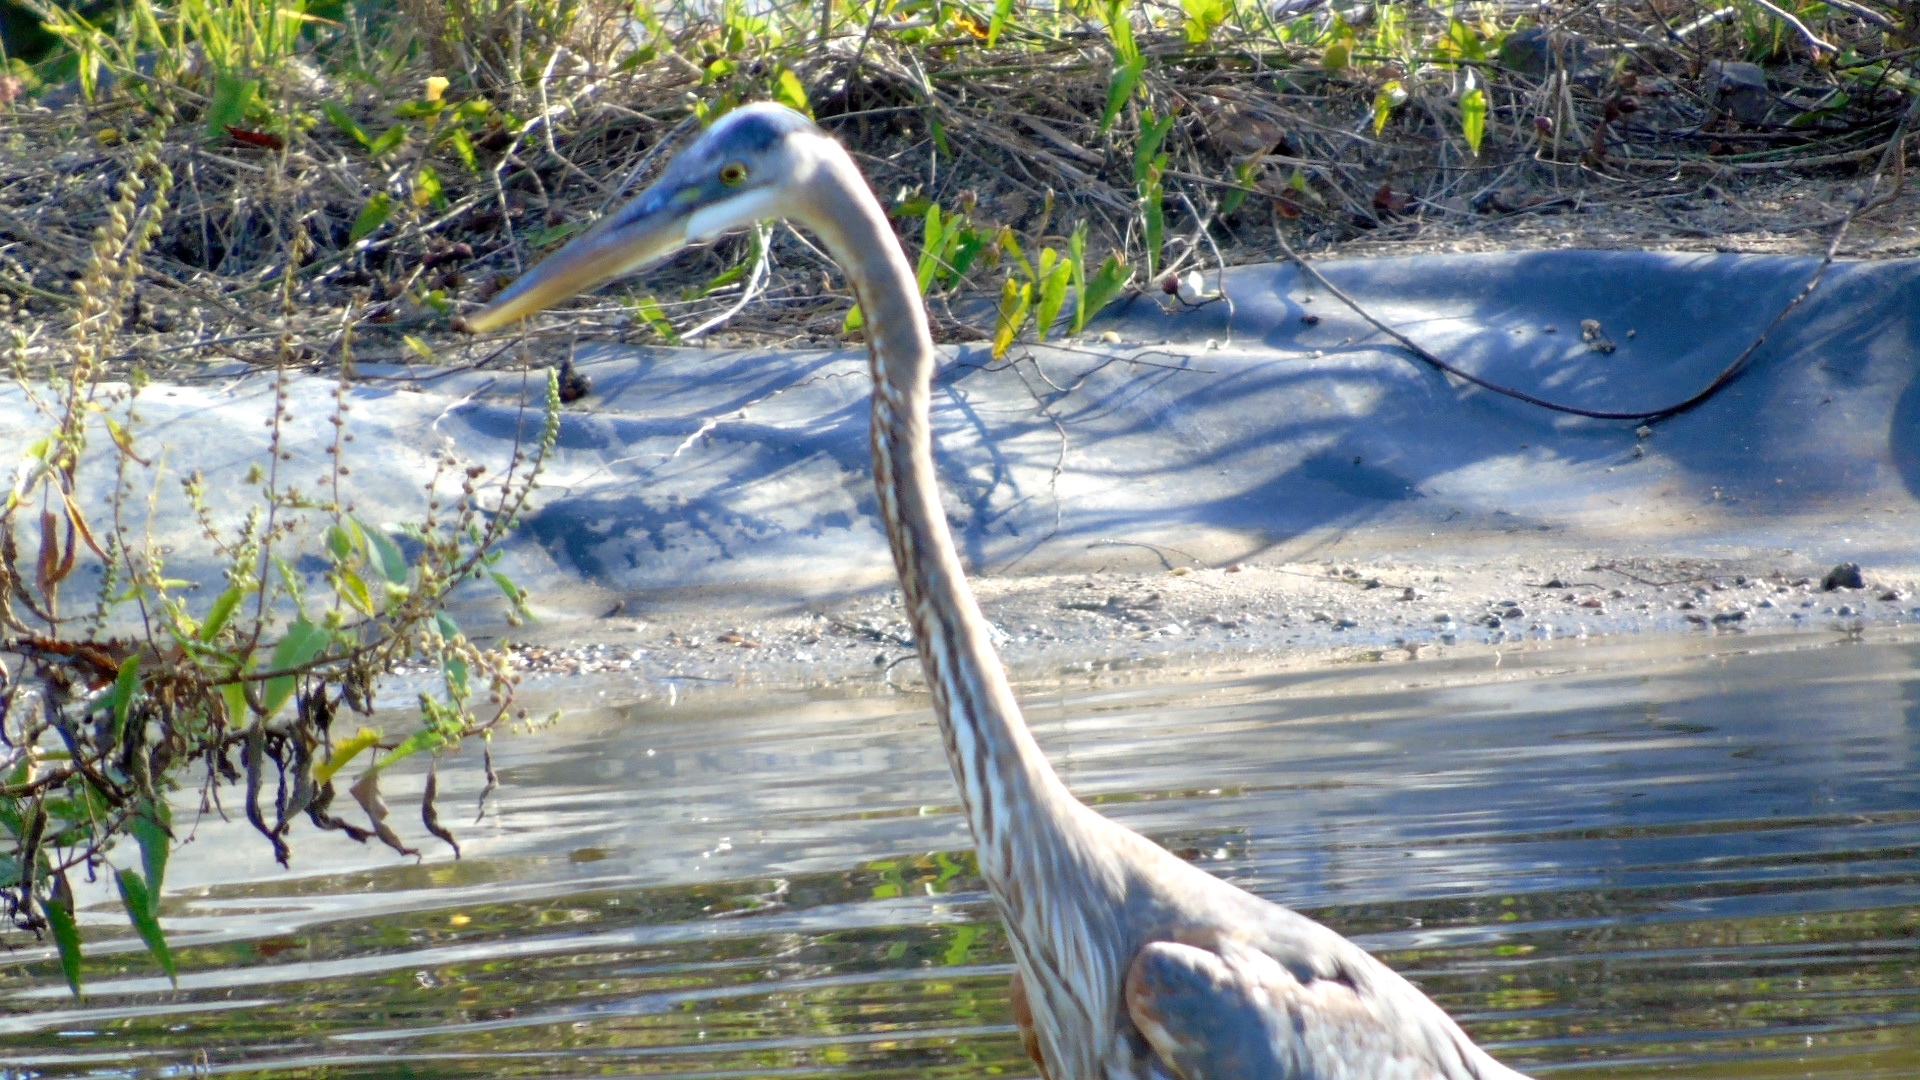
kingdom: Animalia
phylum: Chordata
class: Aves
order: Pelecaniformes
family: Ardeidae
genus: Ardea
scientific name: Ardea herodias
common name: Great blue heron
